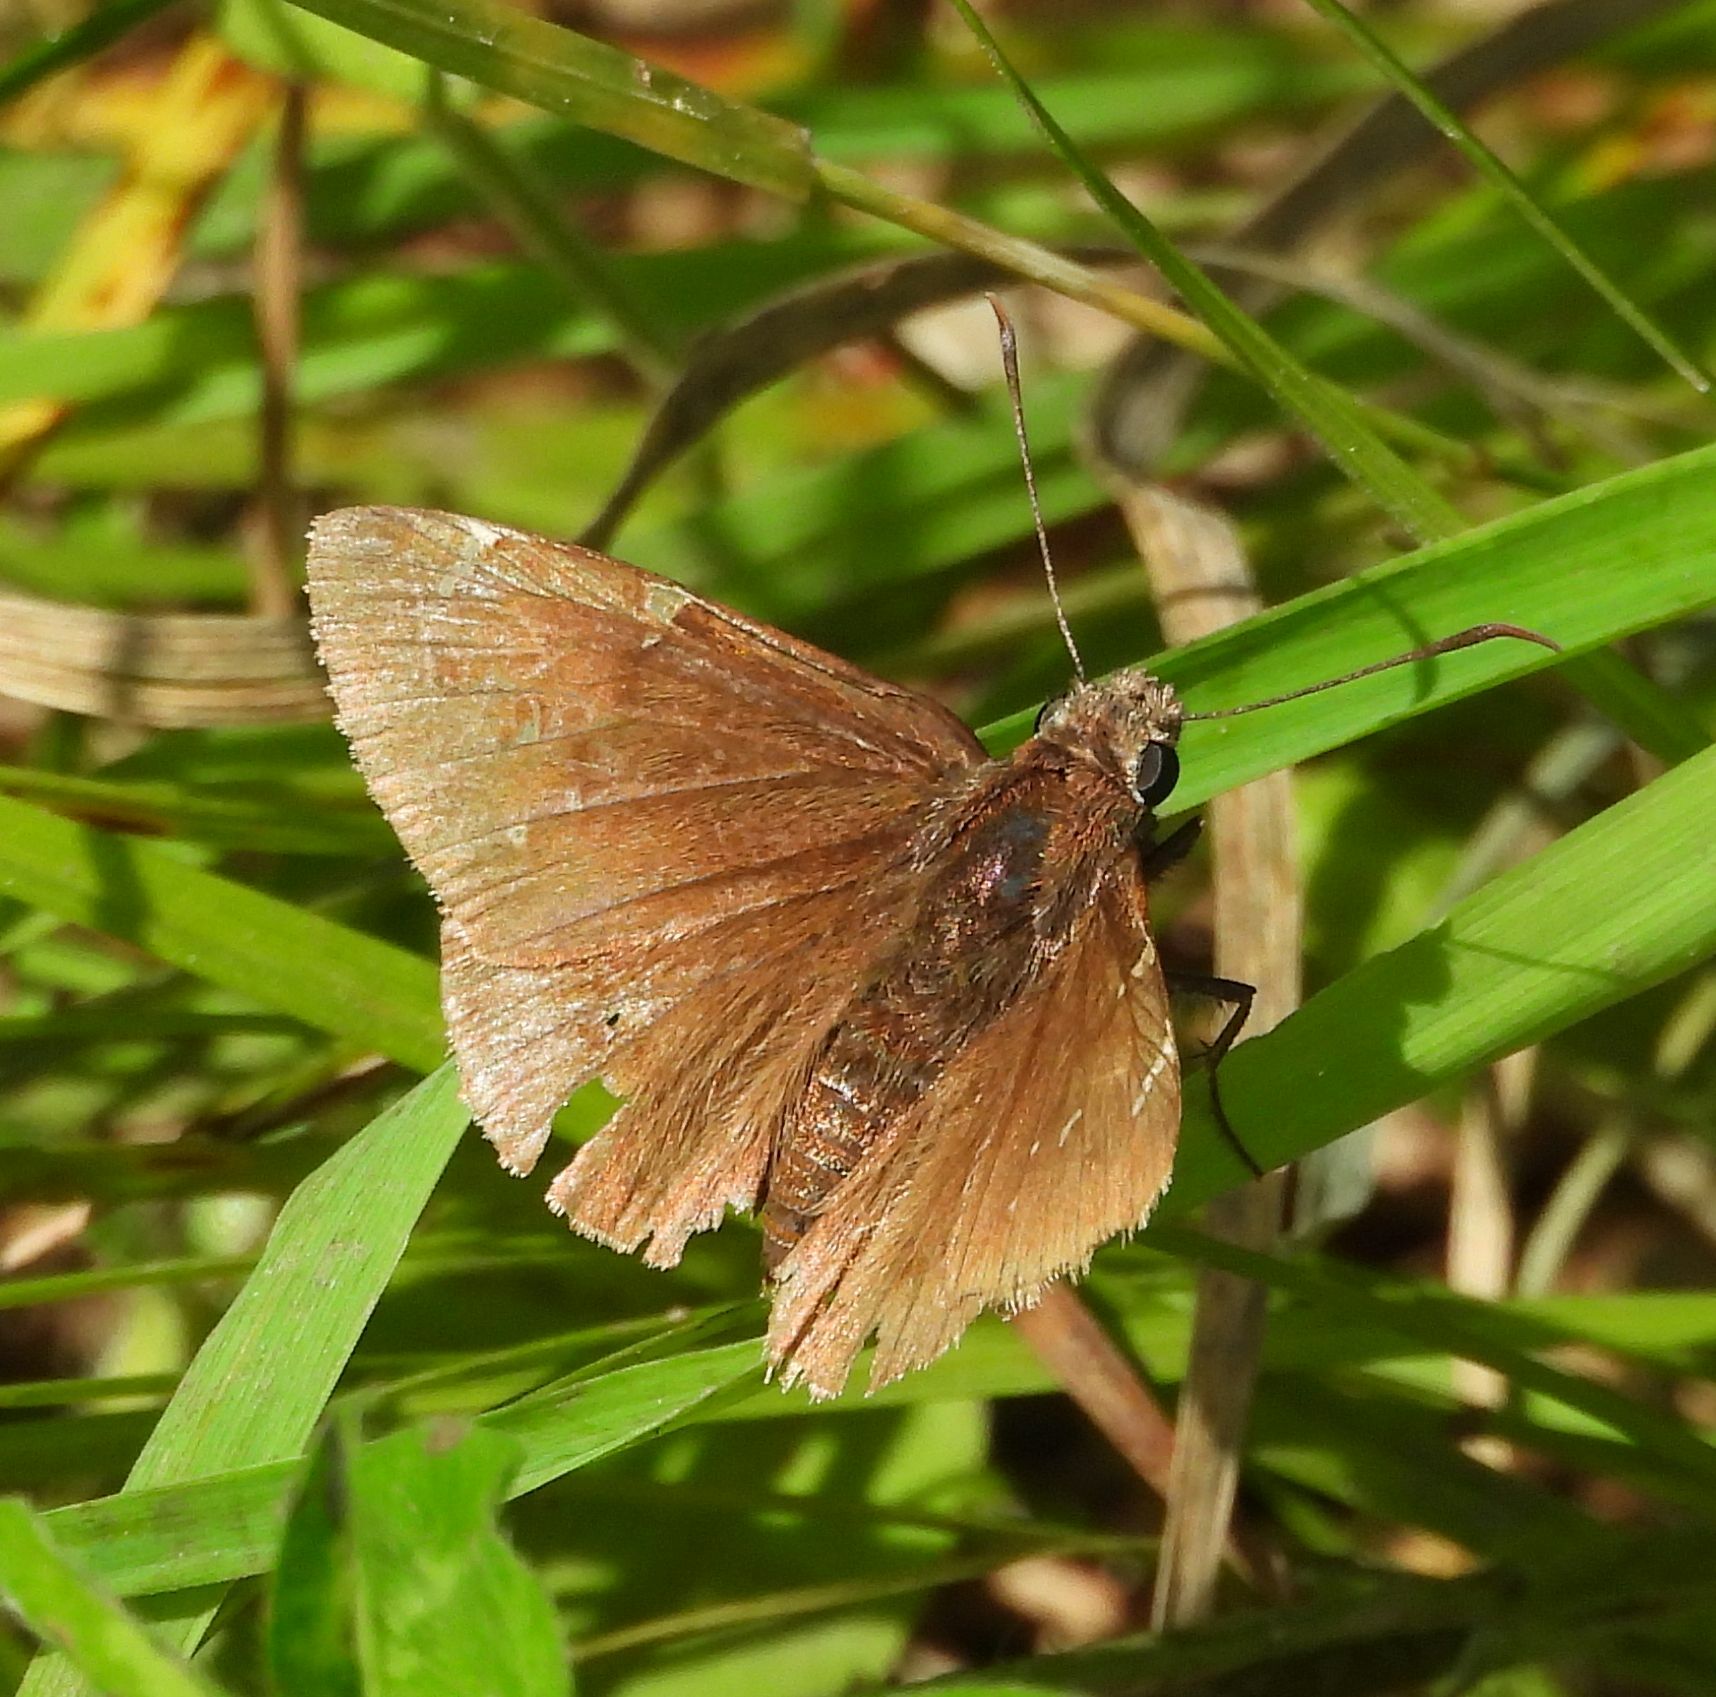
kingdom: Animalia
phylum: Arthropoda
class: Insecta
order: Lepidoptera
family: Hesperiidae
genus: Thorybes
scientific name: Thorybes pylades
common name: Northern cloudywing
